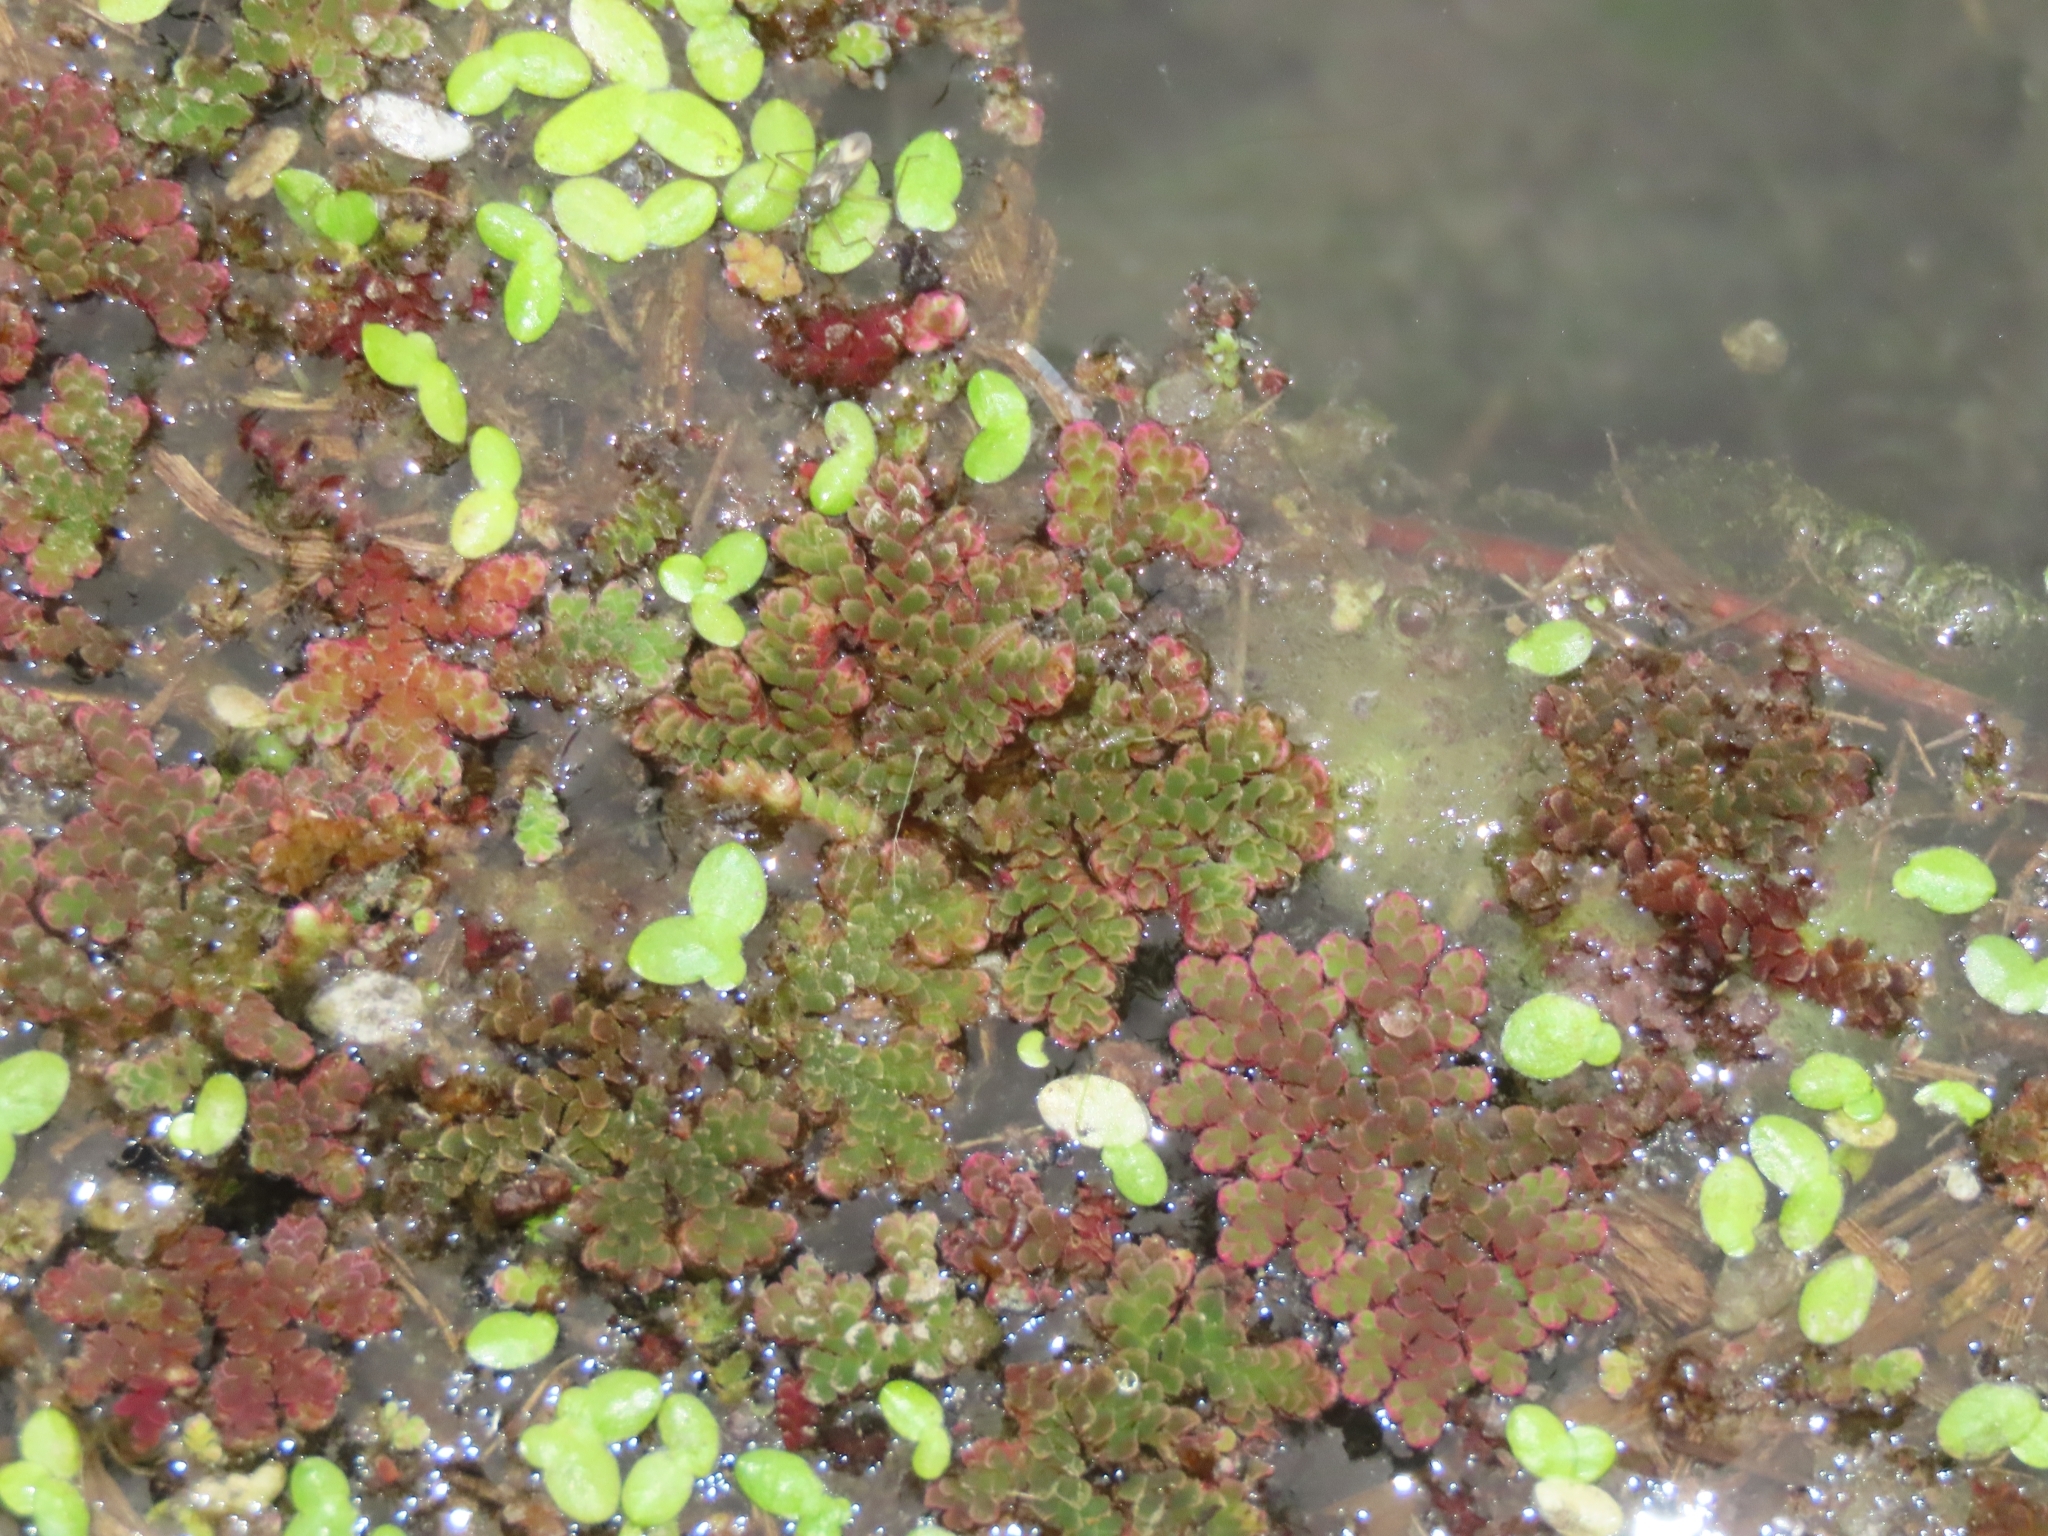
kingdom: Plantae
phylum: Tracheophyta
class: Polypodiopsida
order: Salviniales
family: Salviniaceae
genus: Azolla
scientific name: Azolla caroliniana
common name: Carolina mosquitofern
